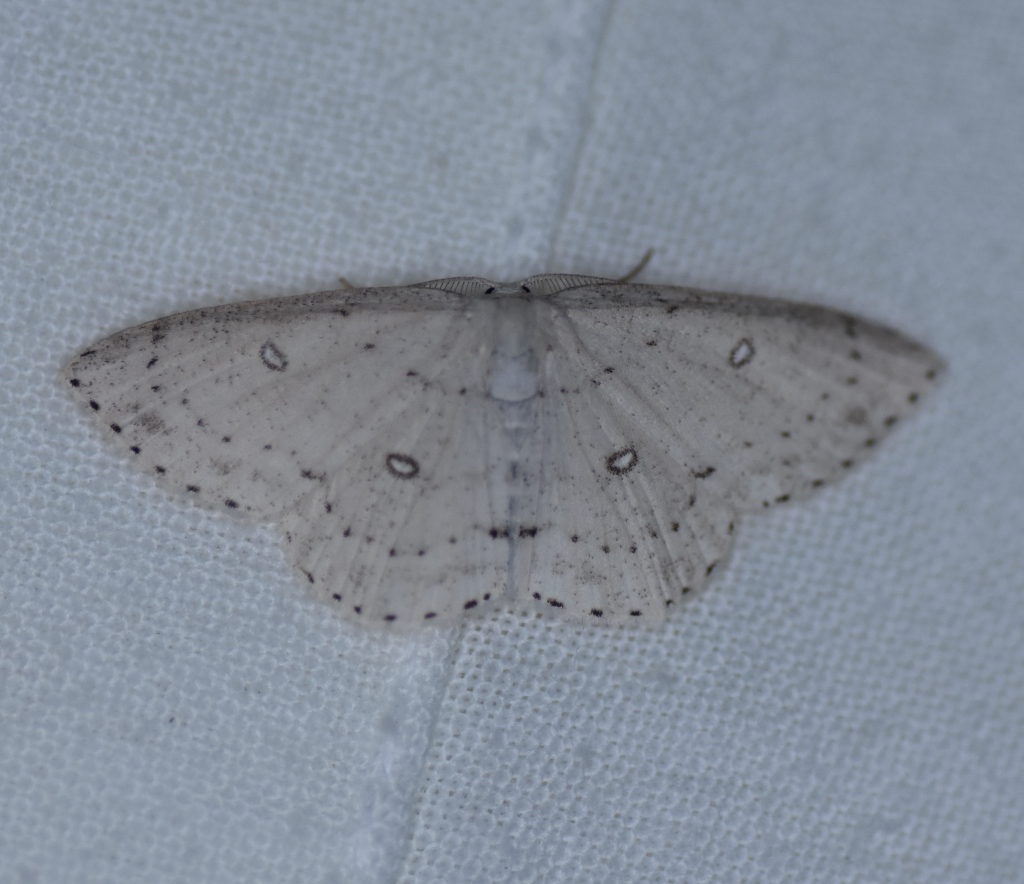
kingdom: Animalia
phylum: Arthropoda
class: Insecta
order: Lepidoptera
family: Geometridae
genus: Cyclophora
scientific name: Cyclophora pendulinaria
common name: Sweet fern geometer
